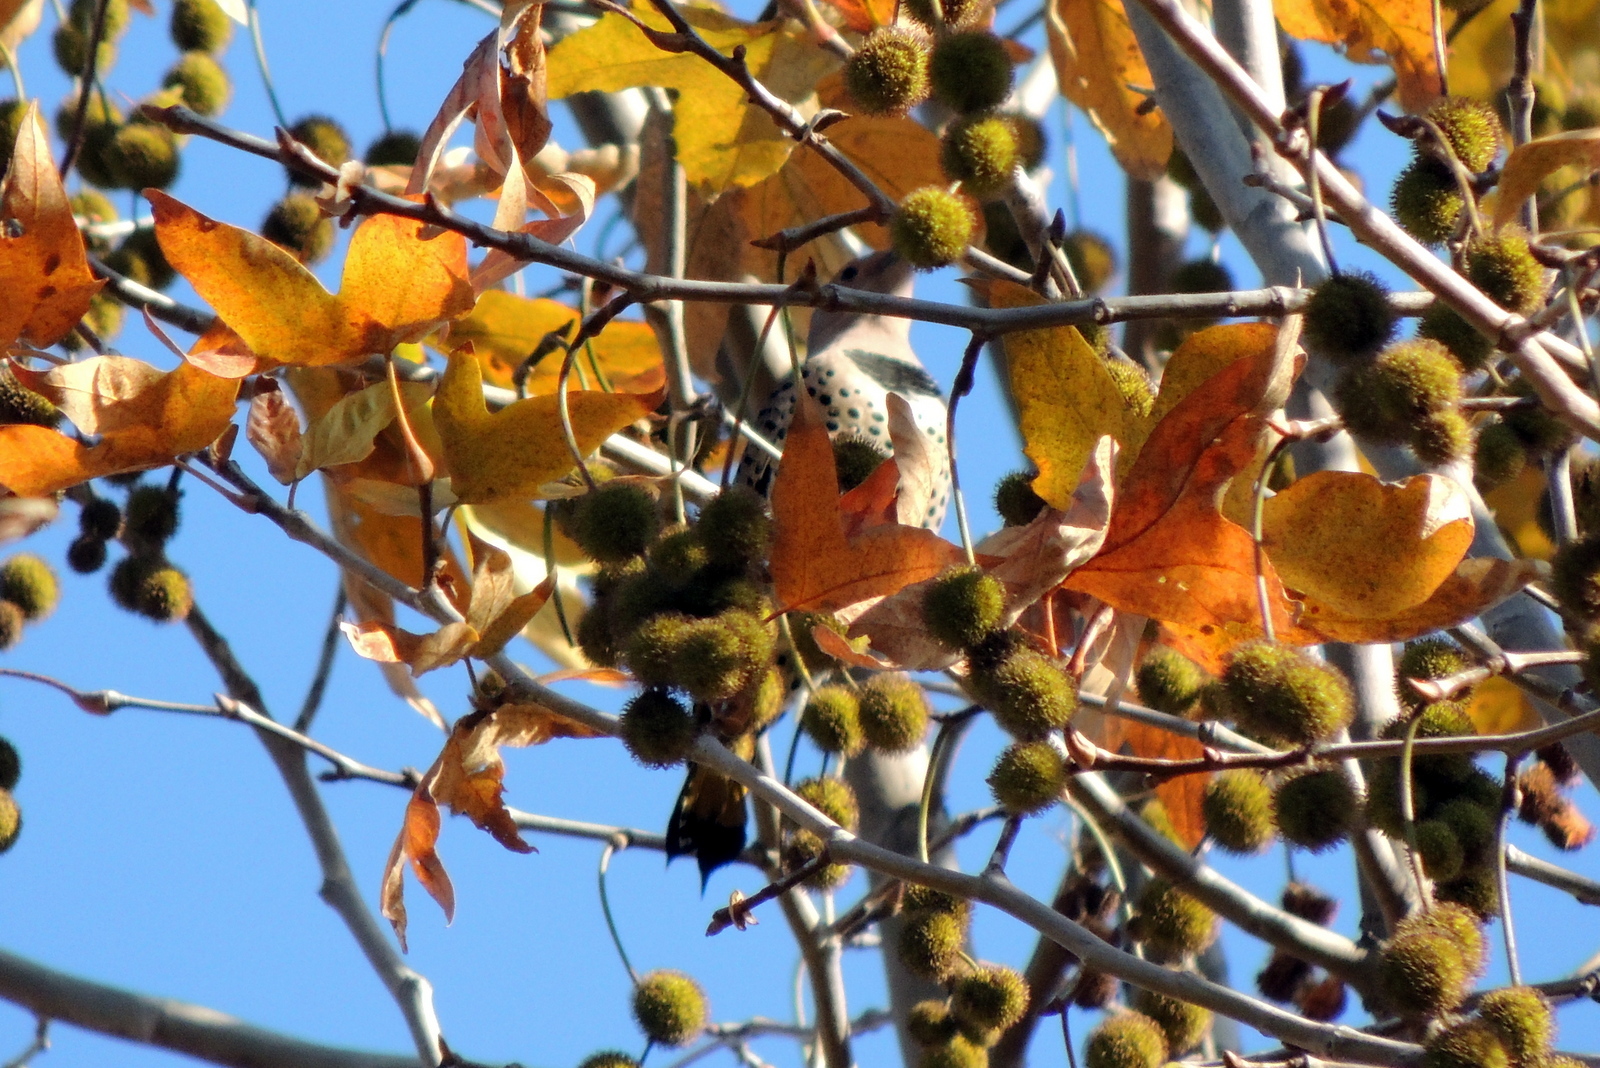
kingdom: Animalia
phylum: Chordata
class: Aves
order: Piciformes
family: Picidae
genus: Colaptes
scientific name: Colaptes auratus
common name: Northern flicker
